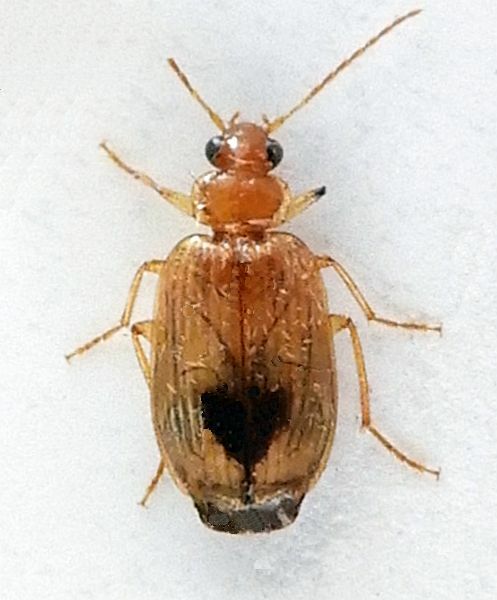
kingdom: Animalia
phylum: Arthropoda
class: Insecta
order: Coleoptera
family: Carabidae
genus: Lebia
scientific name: Lebia abdita
